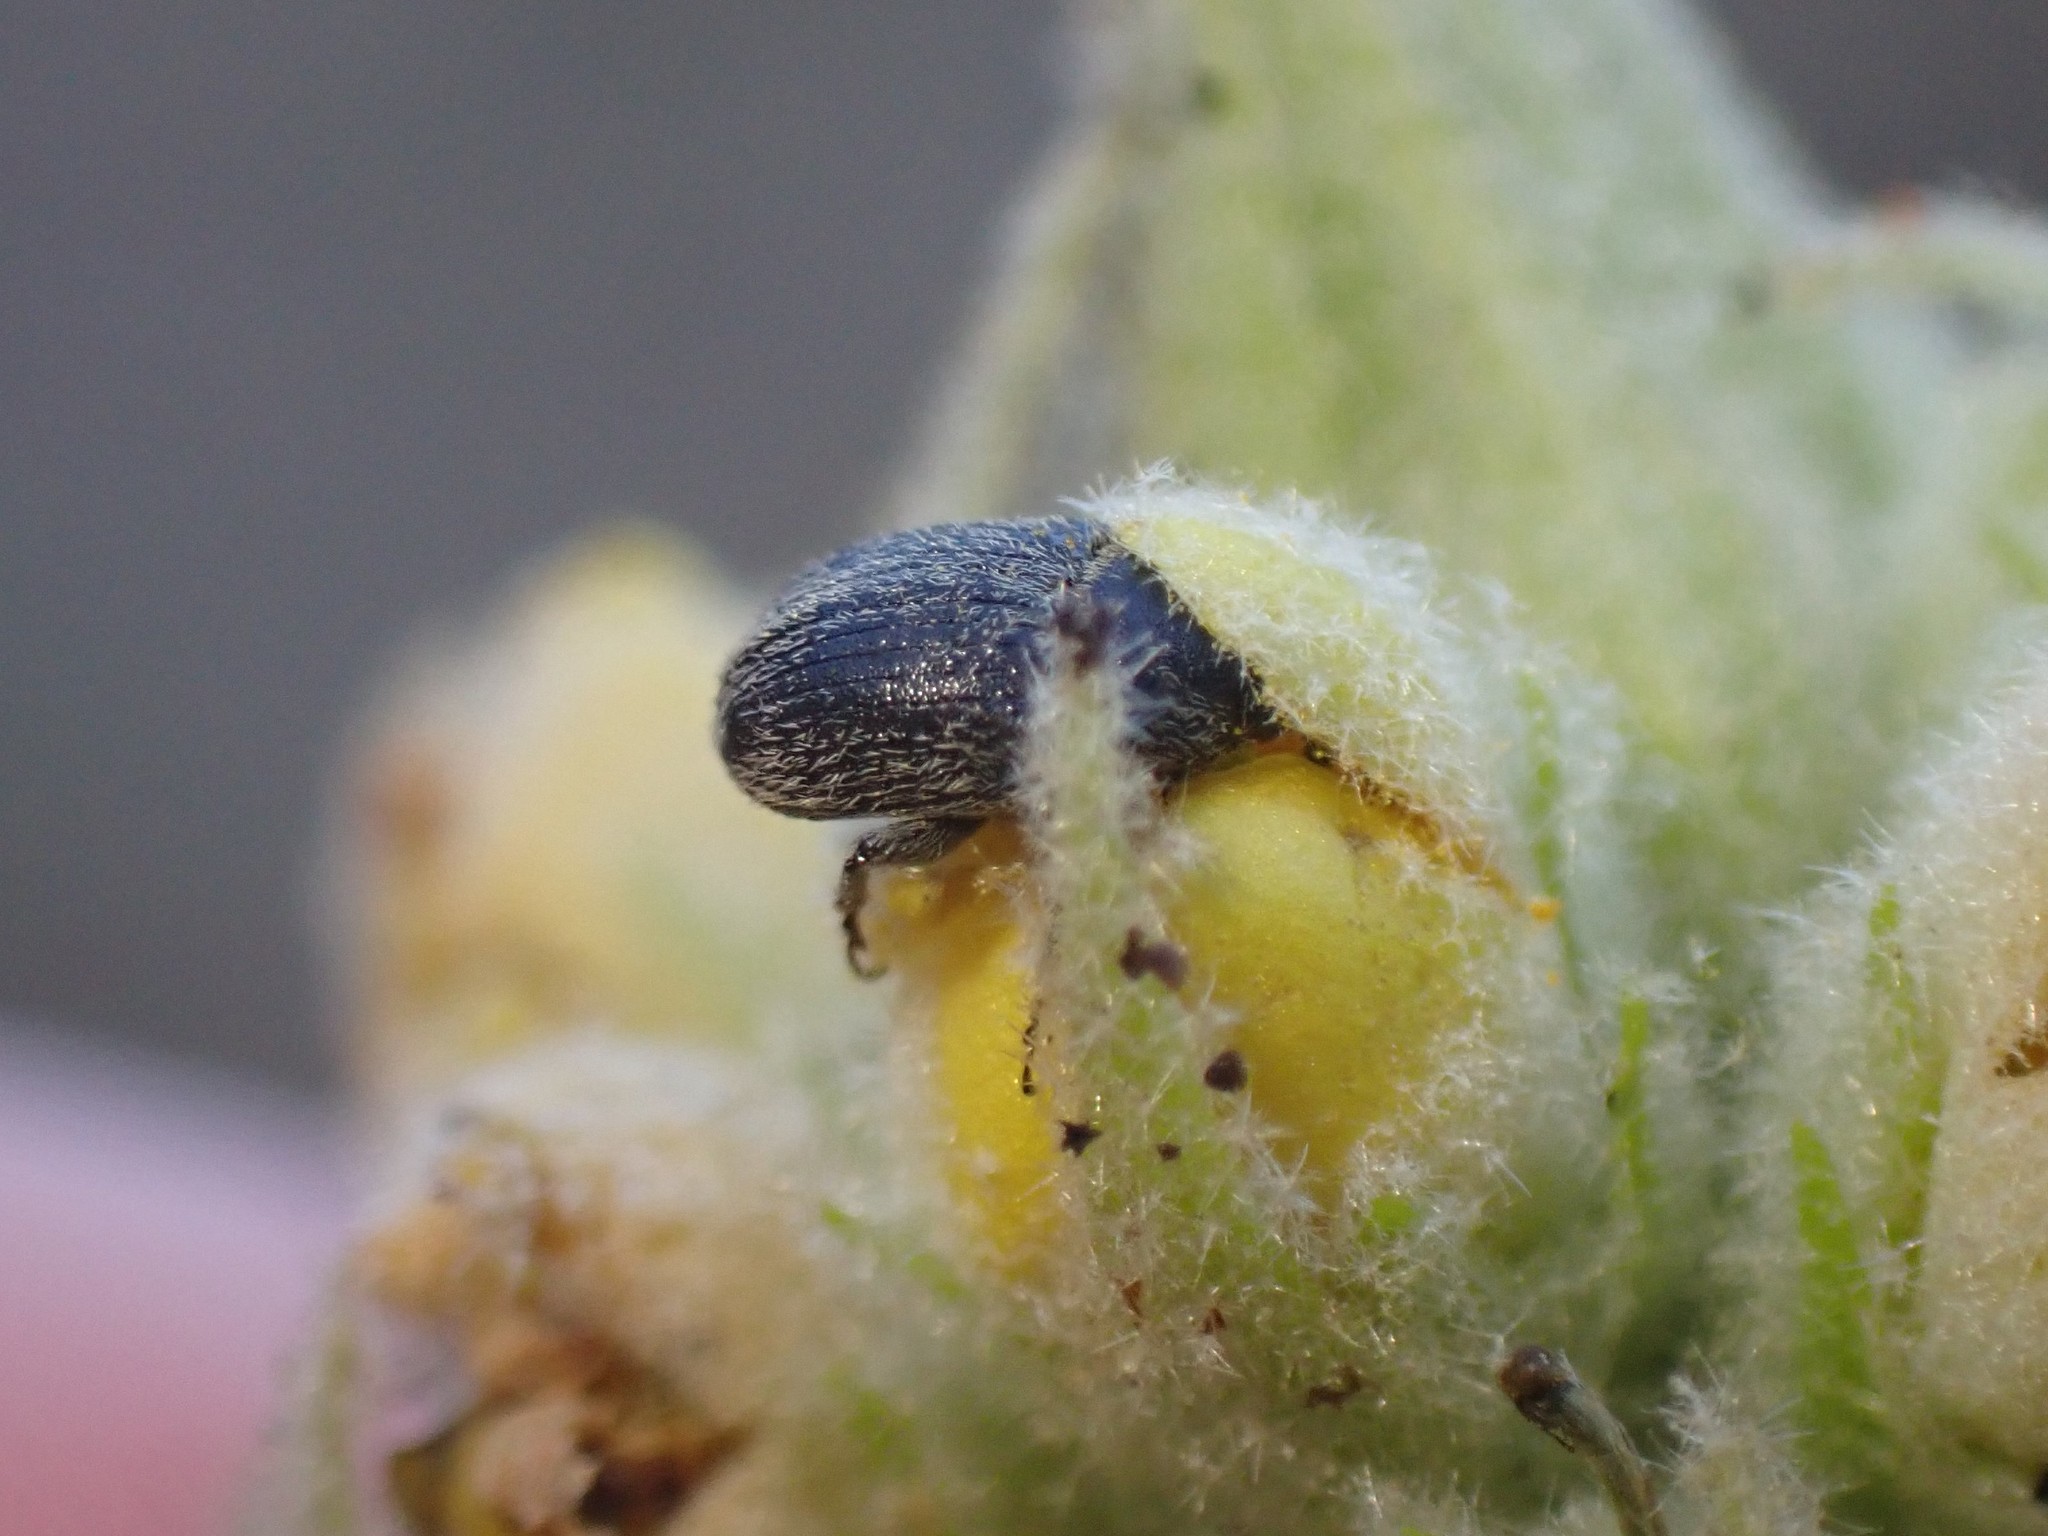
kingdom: Animalia
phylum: Arthropoda
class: Insecta
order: Coleoptera
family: Curculionidae
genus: Rhinusa
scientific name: Rhinusa tetra
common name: Weevil
